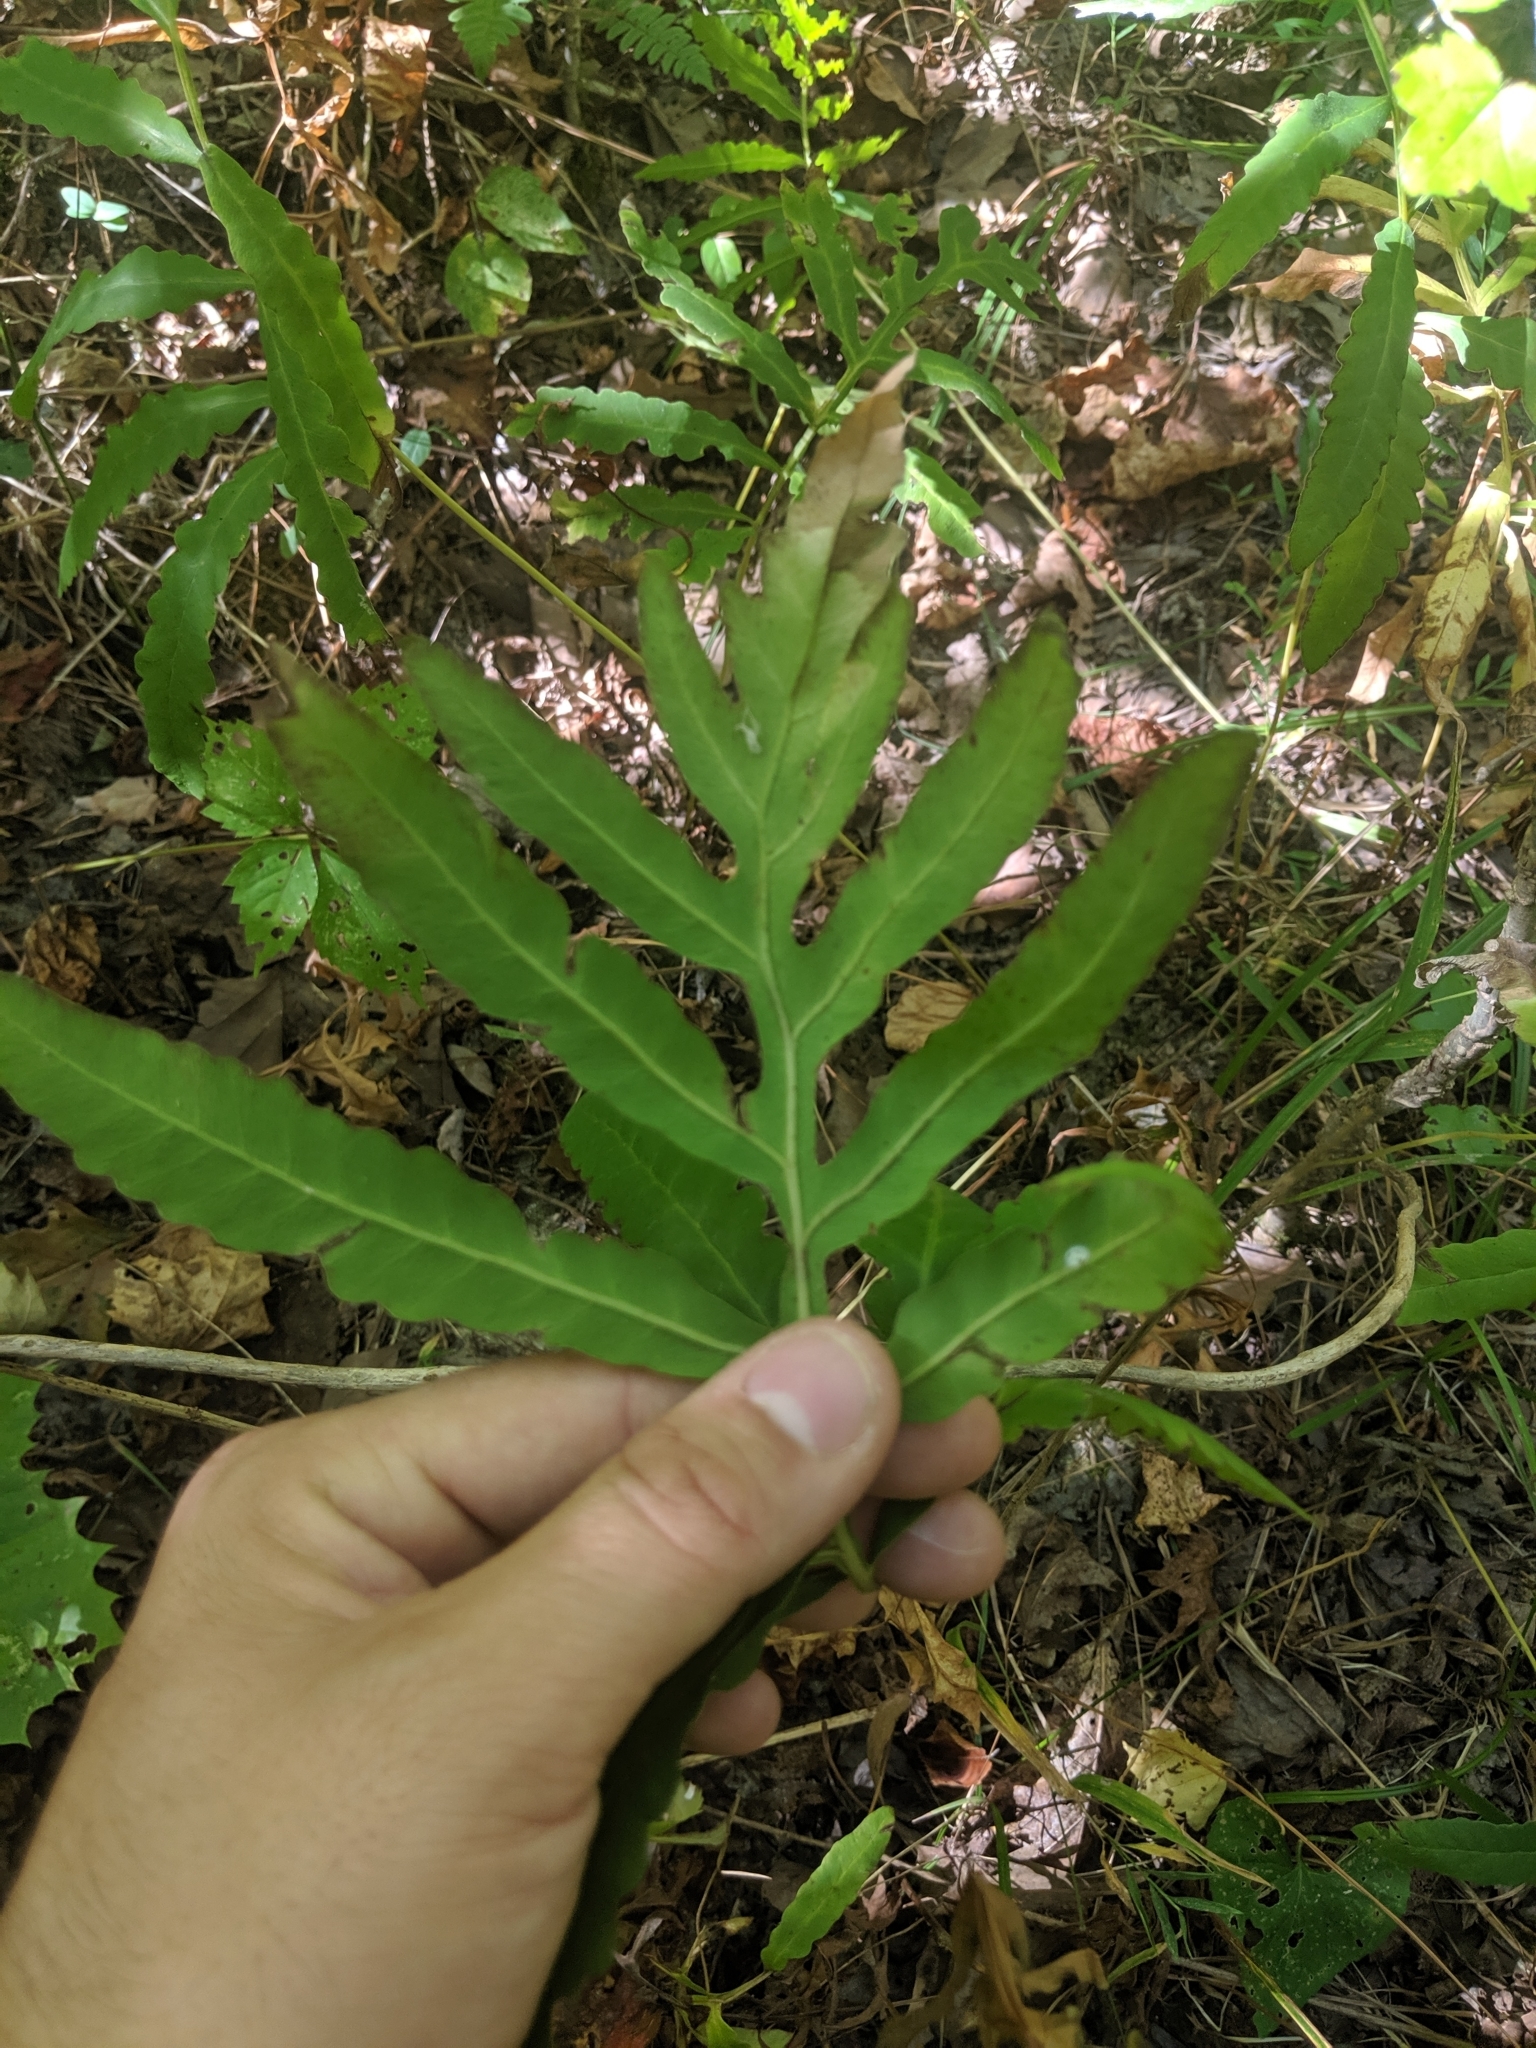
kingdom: Plantae
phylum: Tracheophyta
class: Polypodiopsida
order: Polypodiales
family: Onocleaceae
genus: Onoclea
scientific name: Onoclea sensibilis
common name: Sensitive fern
